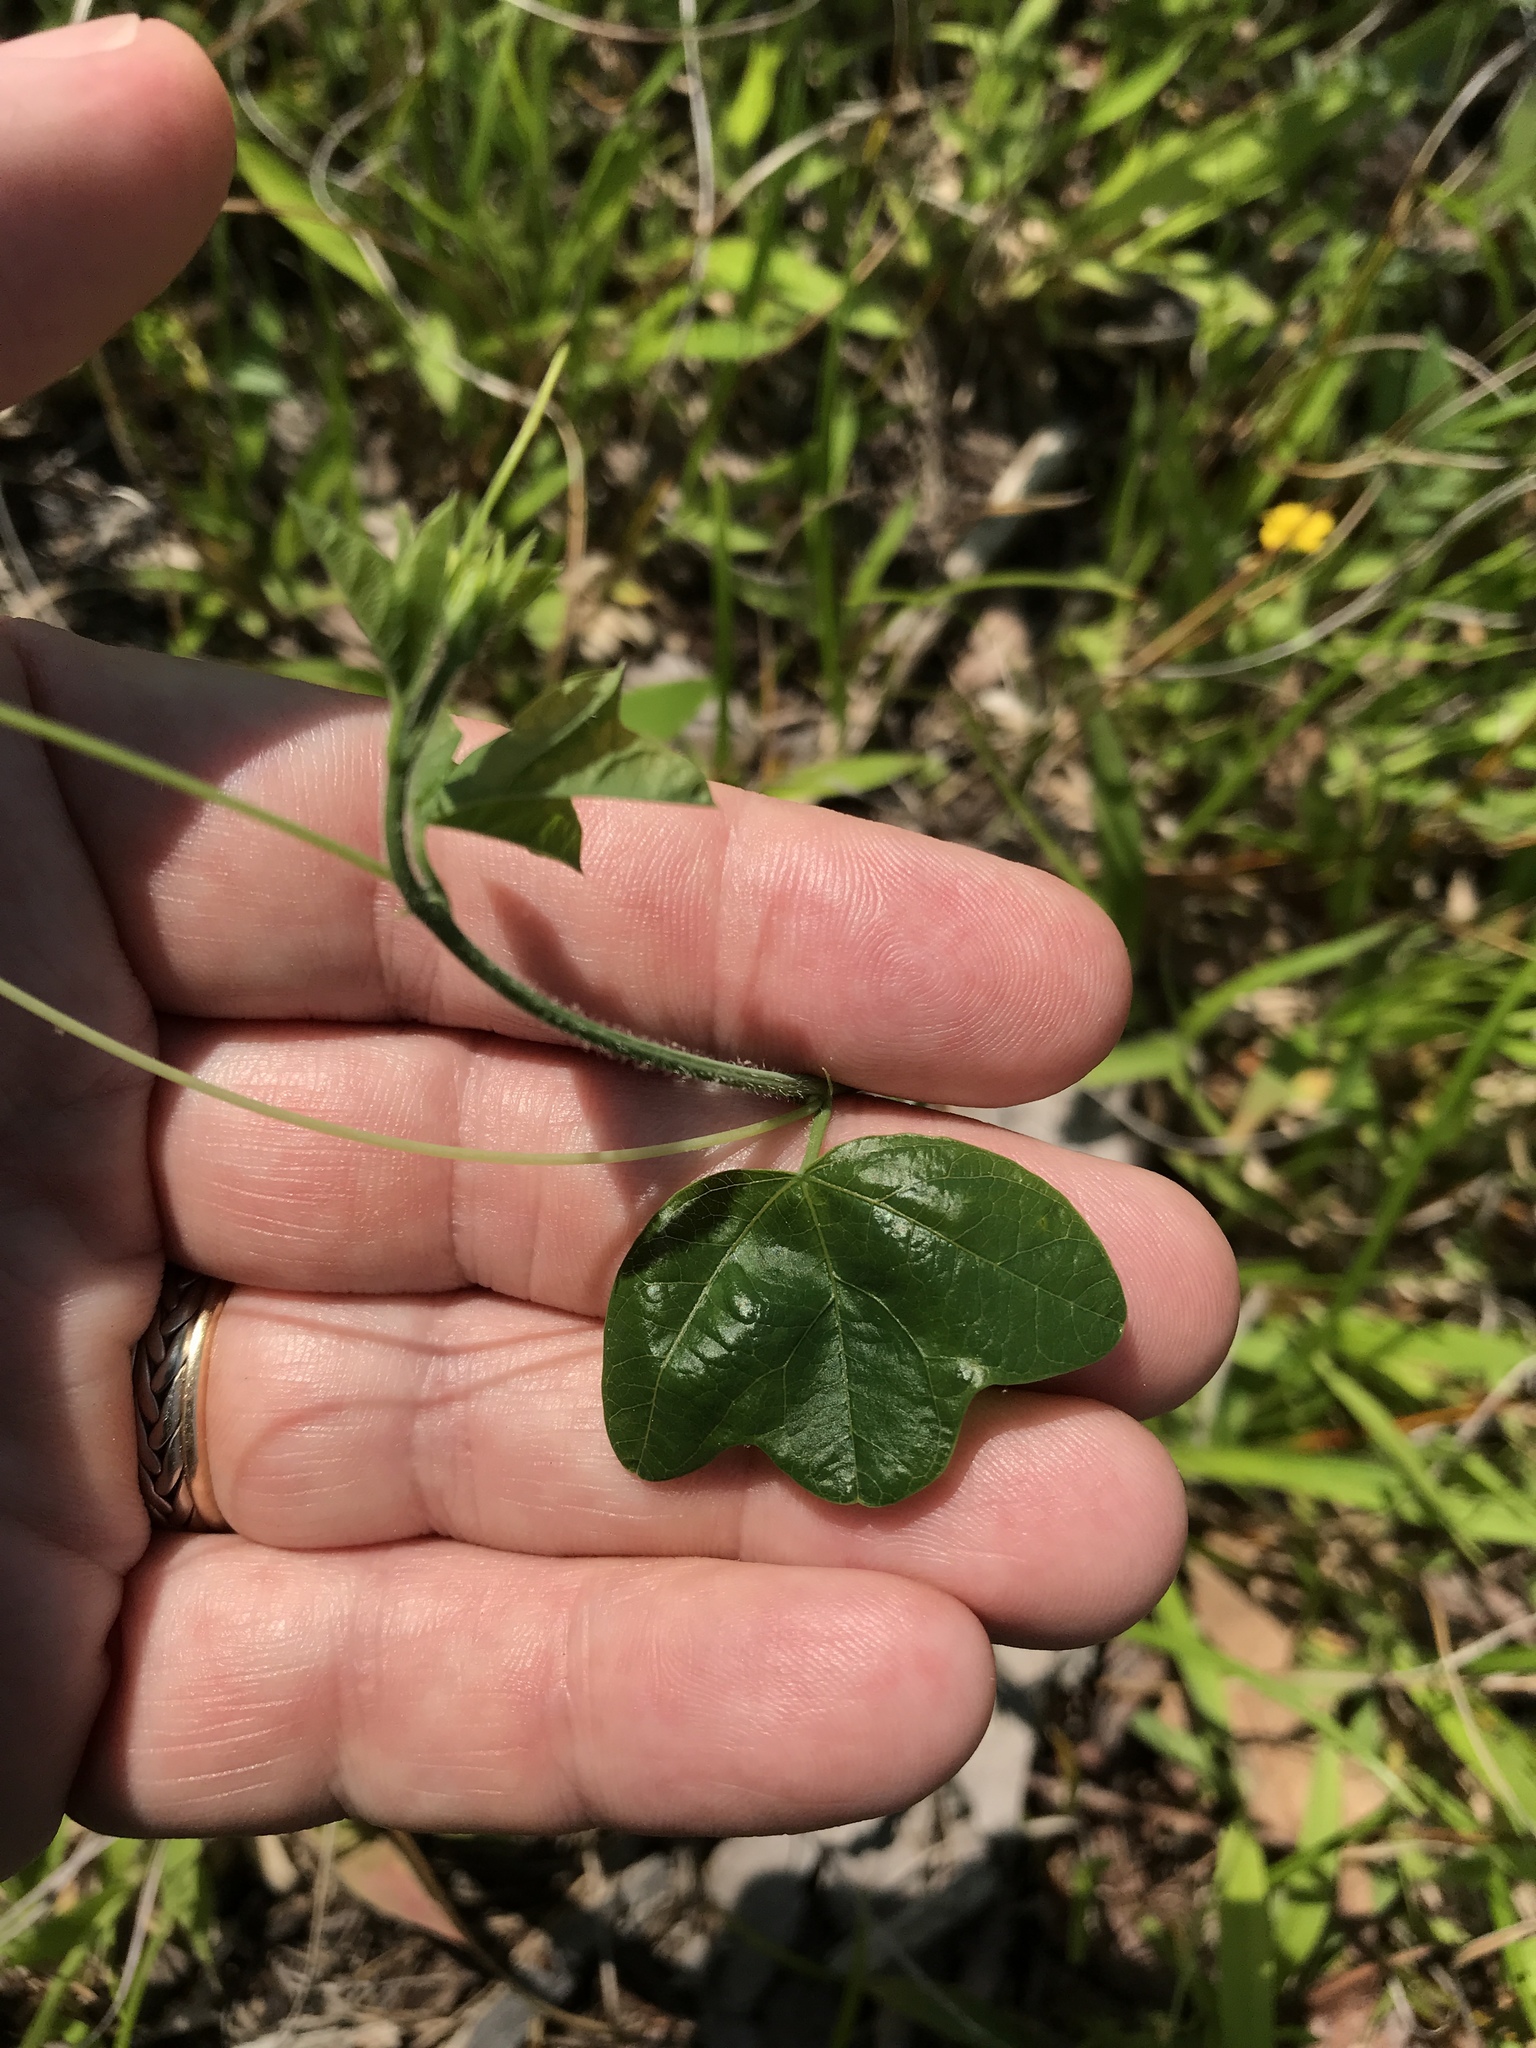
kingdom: Plantae
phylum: Tracheophyta
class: Magnoliopsida
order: Malpighiales
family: Passifloraceae
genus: Passiflora
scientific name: Passiflora lutea
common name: Yellow passionflower
